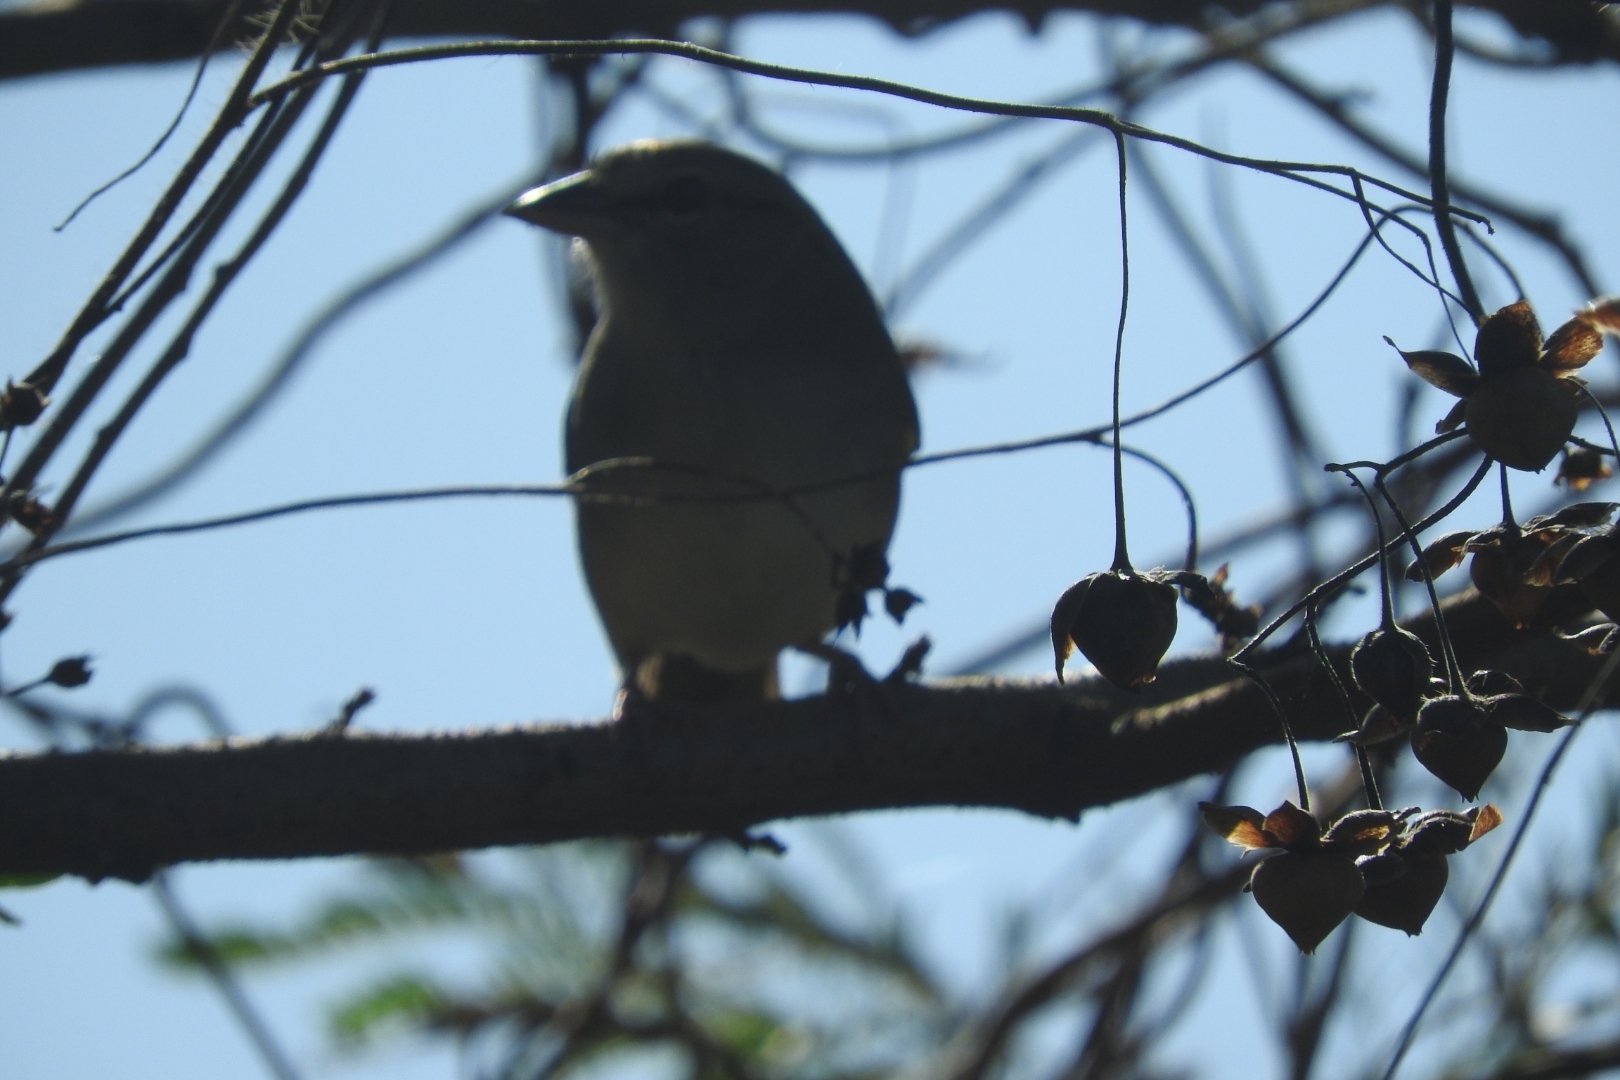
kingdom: Animalia
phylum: Chordata
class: Aves
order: Passeriformes
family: Passerellidae
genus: Arremonops
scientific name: Arremonops rufivirgatus
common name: Olive sparrow
